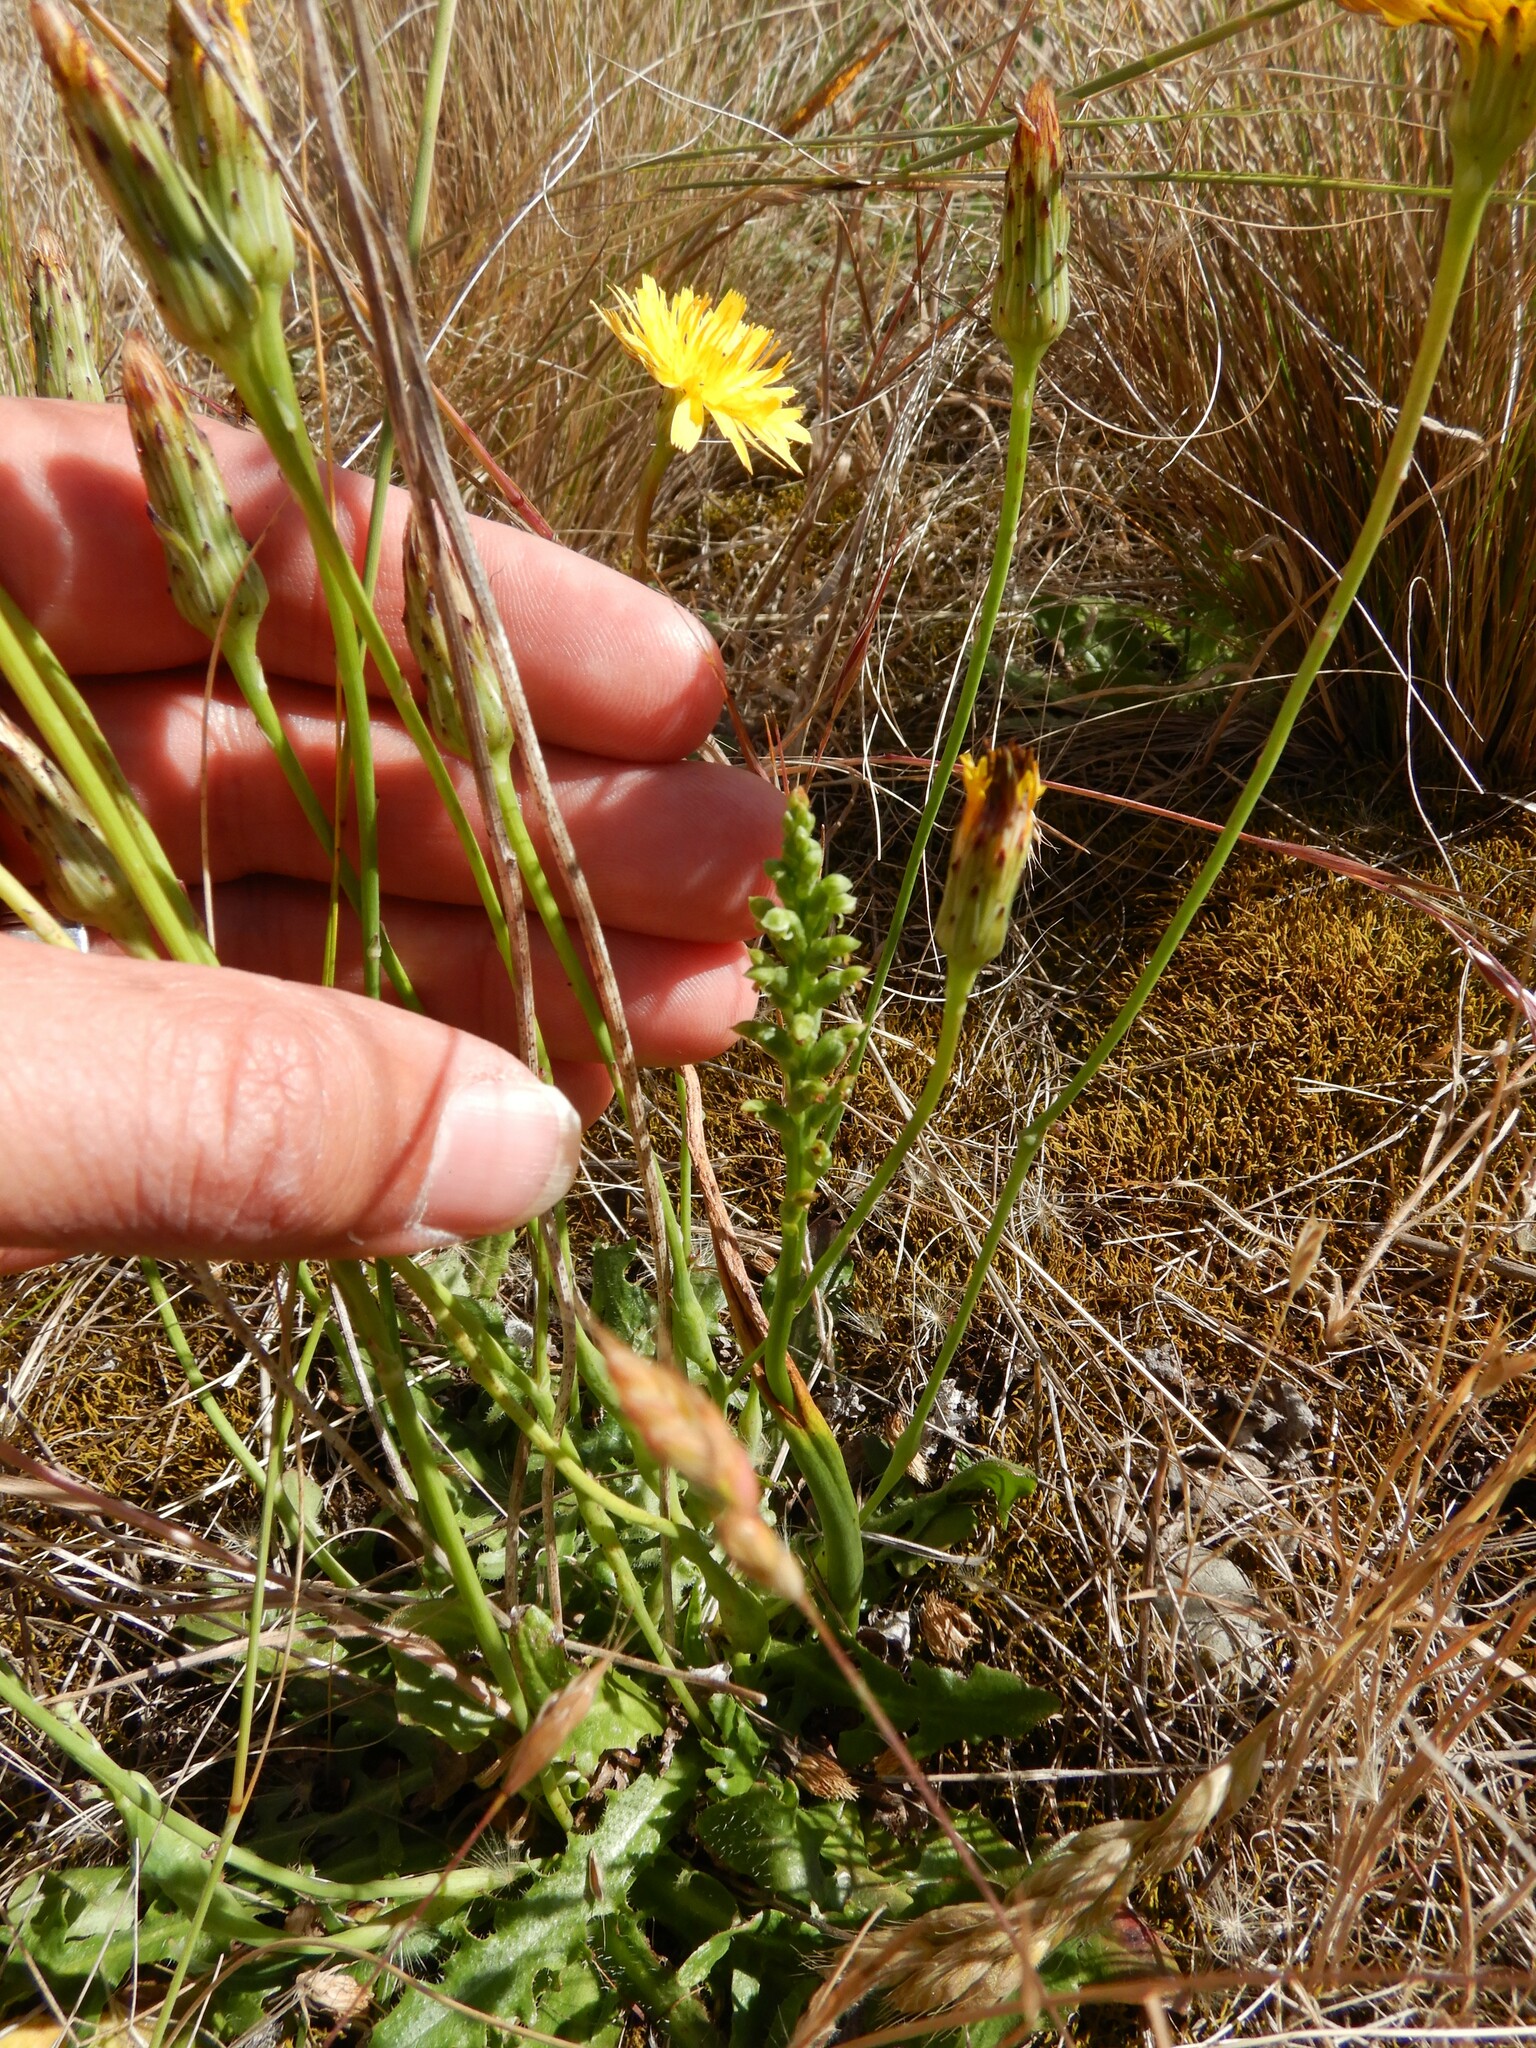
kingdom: Plantae
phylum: Tracheophyta
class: Liliopsida
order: Asparagales
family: Orchidaceae
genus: Microtis
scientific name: Microtis unifolia
